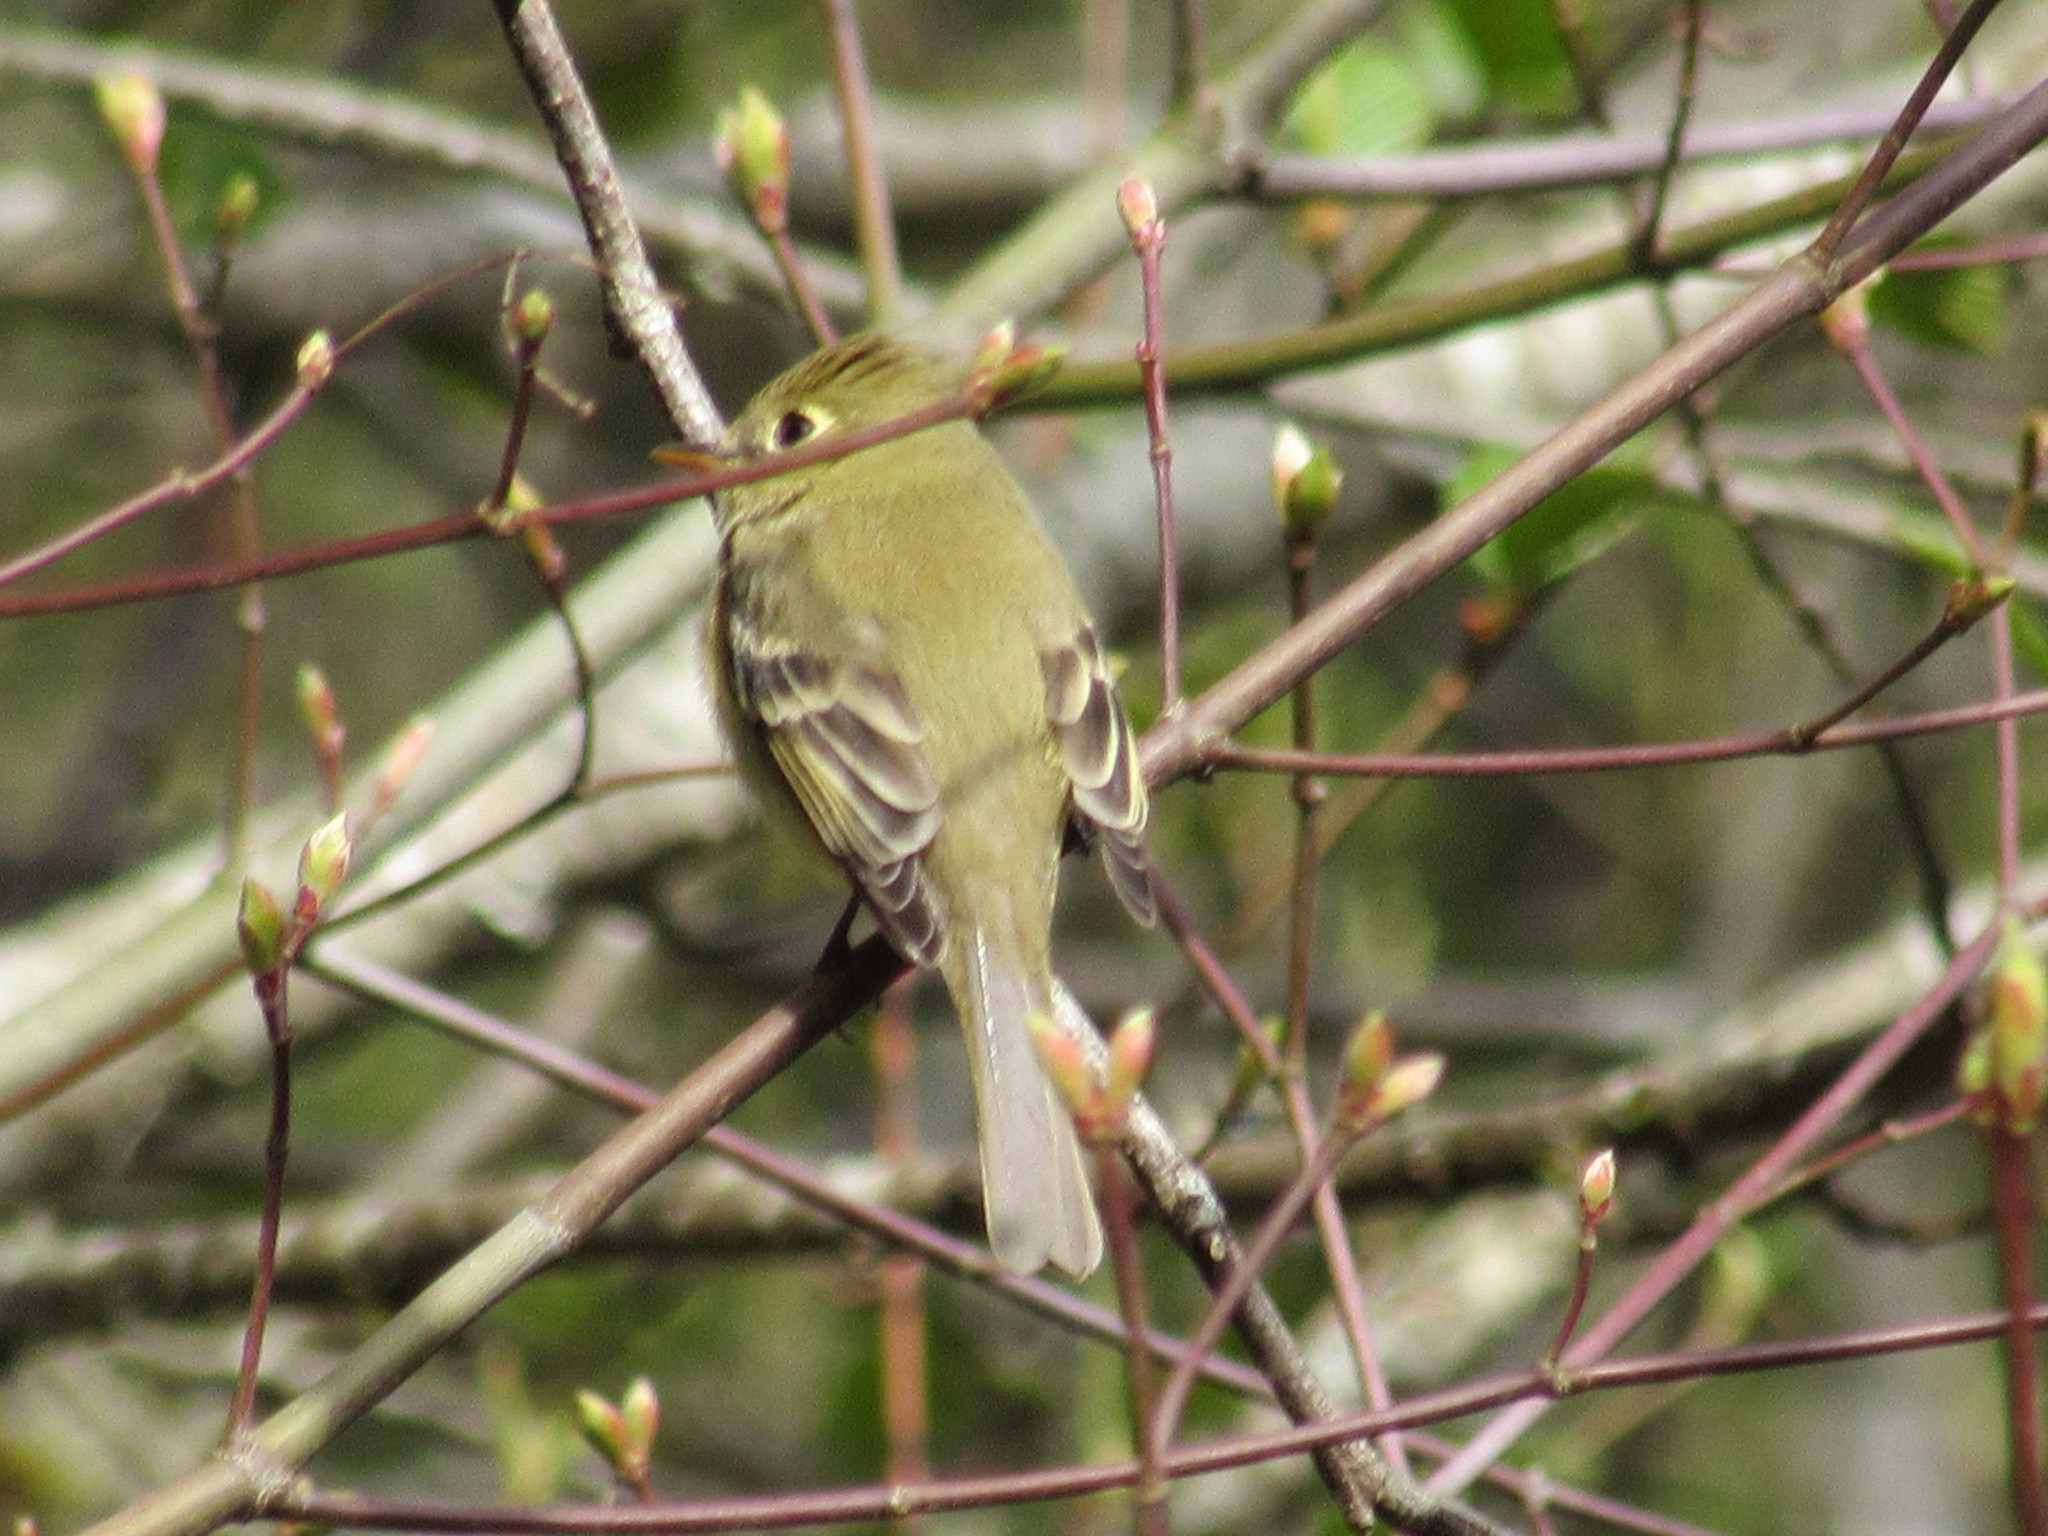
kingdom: Animalia
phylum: Chordata
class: Aves
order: Passeriformes
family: Tyrannidae
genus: Empidonax
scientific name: Empidonax difficilis
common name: Pacific-slope flycatcher
